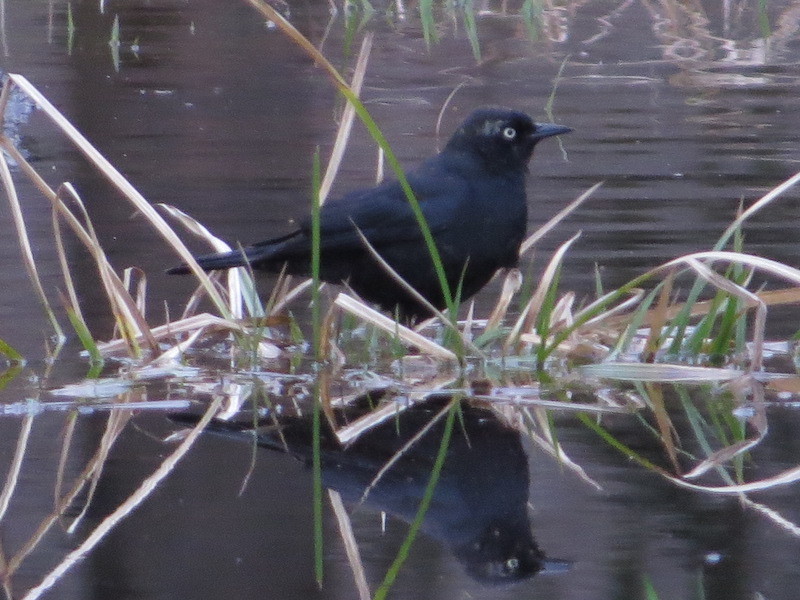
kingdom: Animalia
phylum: Chordata
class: Aves
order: Passeriformes
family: Icteridae
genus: Euphagus
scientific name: Euphagus carolinus
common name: Rusty blackbird
